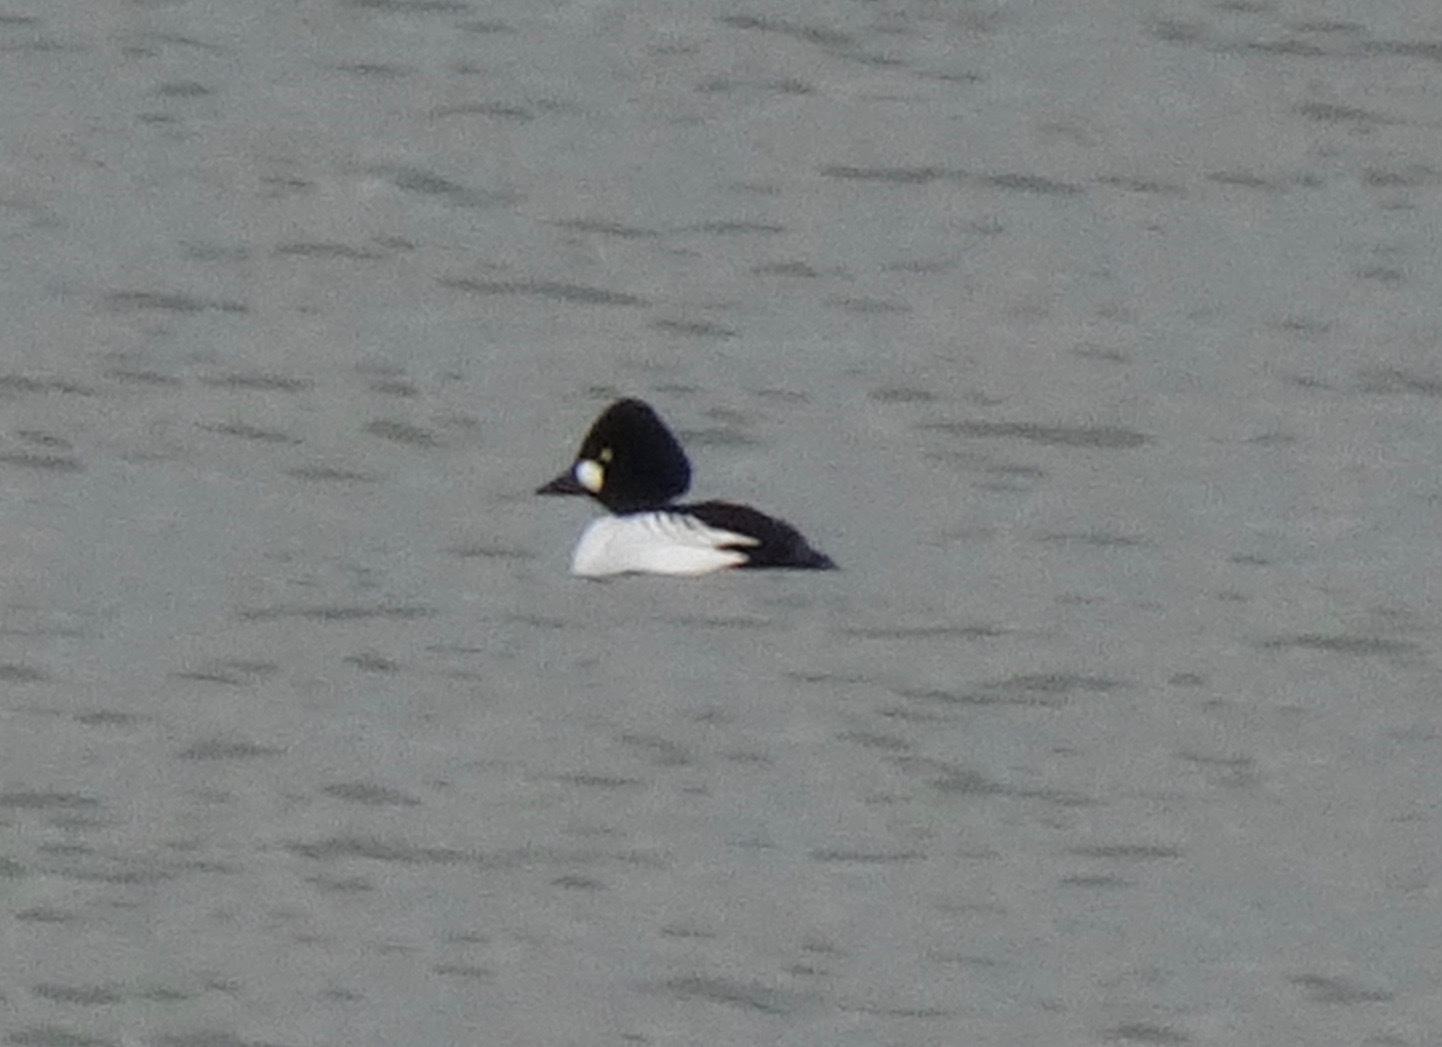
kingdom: Animalia
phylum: Chordata
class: Aves
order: Anseriformes
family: Anatidae
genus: Bucephala
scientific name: Bucephala clangula
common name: Common goldeneye
